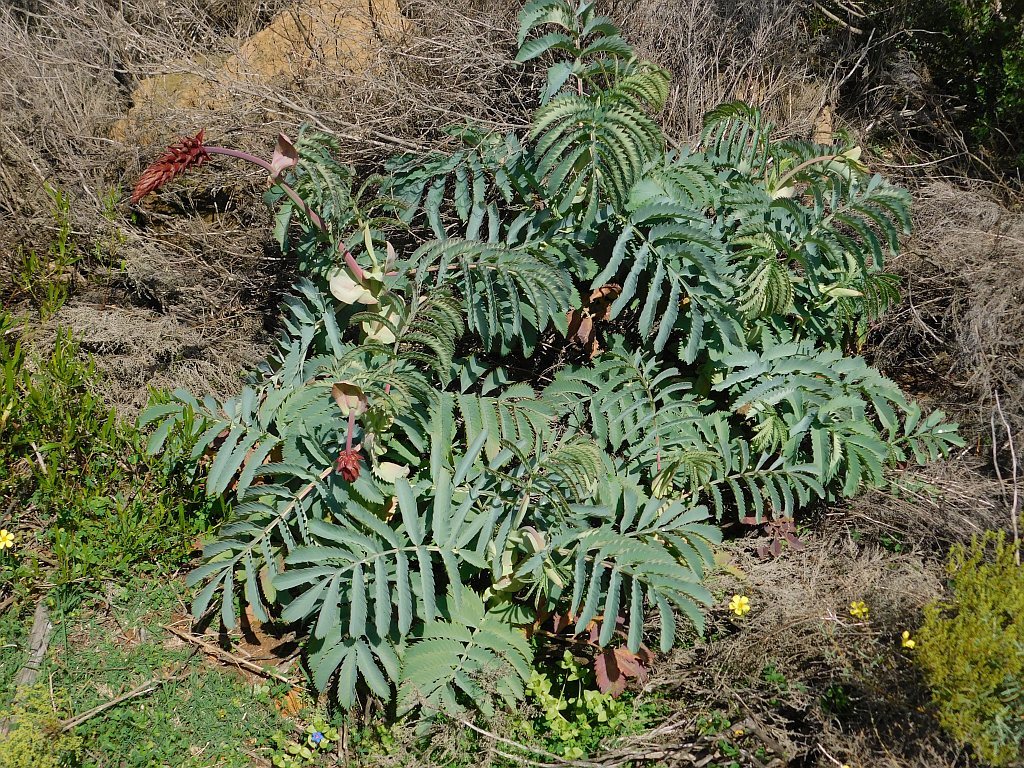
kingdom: Plantae
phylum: Tracheophyta
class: Magnoliopsida
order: Geraniales
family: Melianthaceae
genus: Melianthus
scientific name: Melianthus major
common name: Honey-flower
